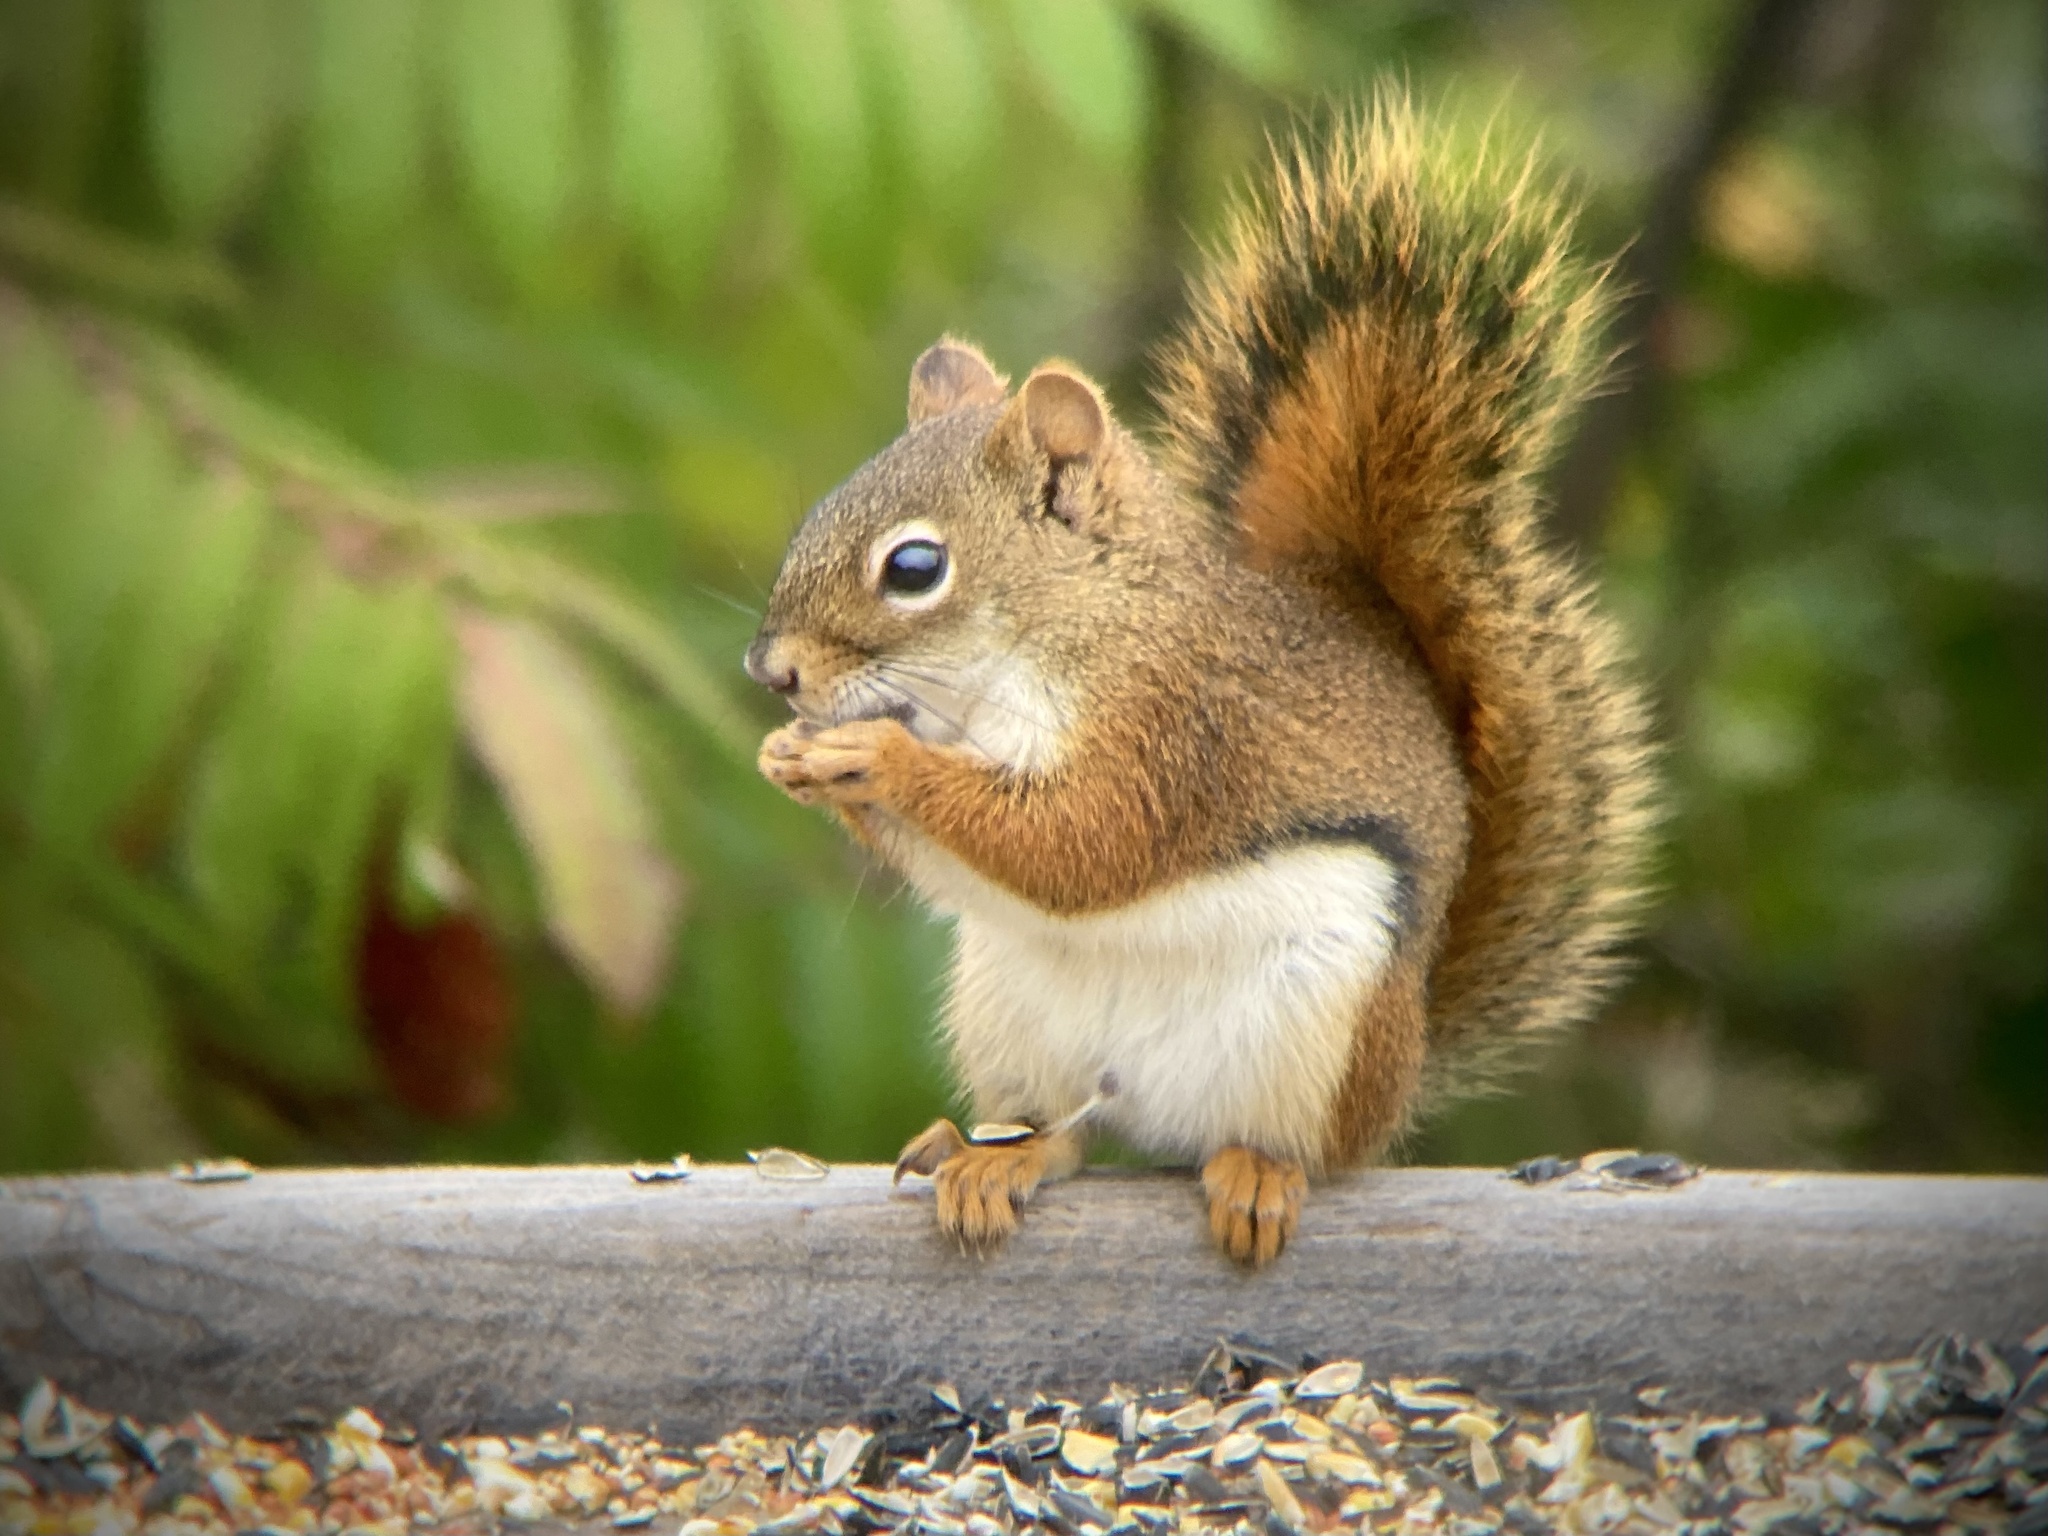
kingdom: Animalia
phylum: Chordata
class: Mammalia
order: Rodentia
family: Sciuridae
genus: Tamiasciurus
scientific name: Tamiasciurus hudsonicus
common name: Red squirrel
